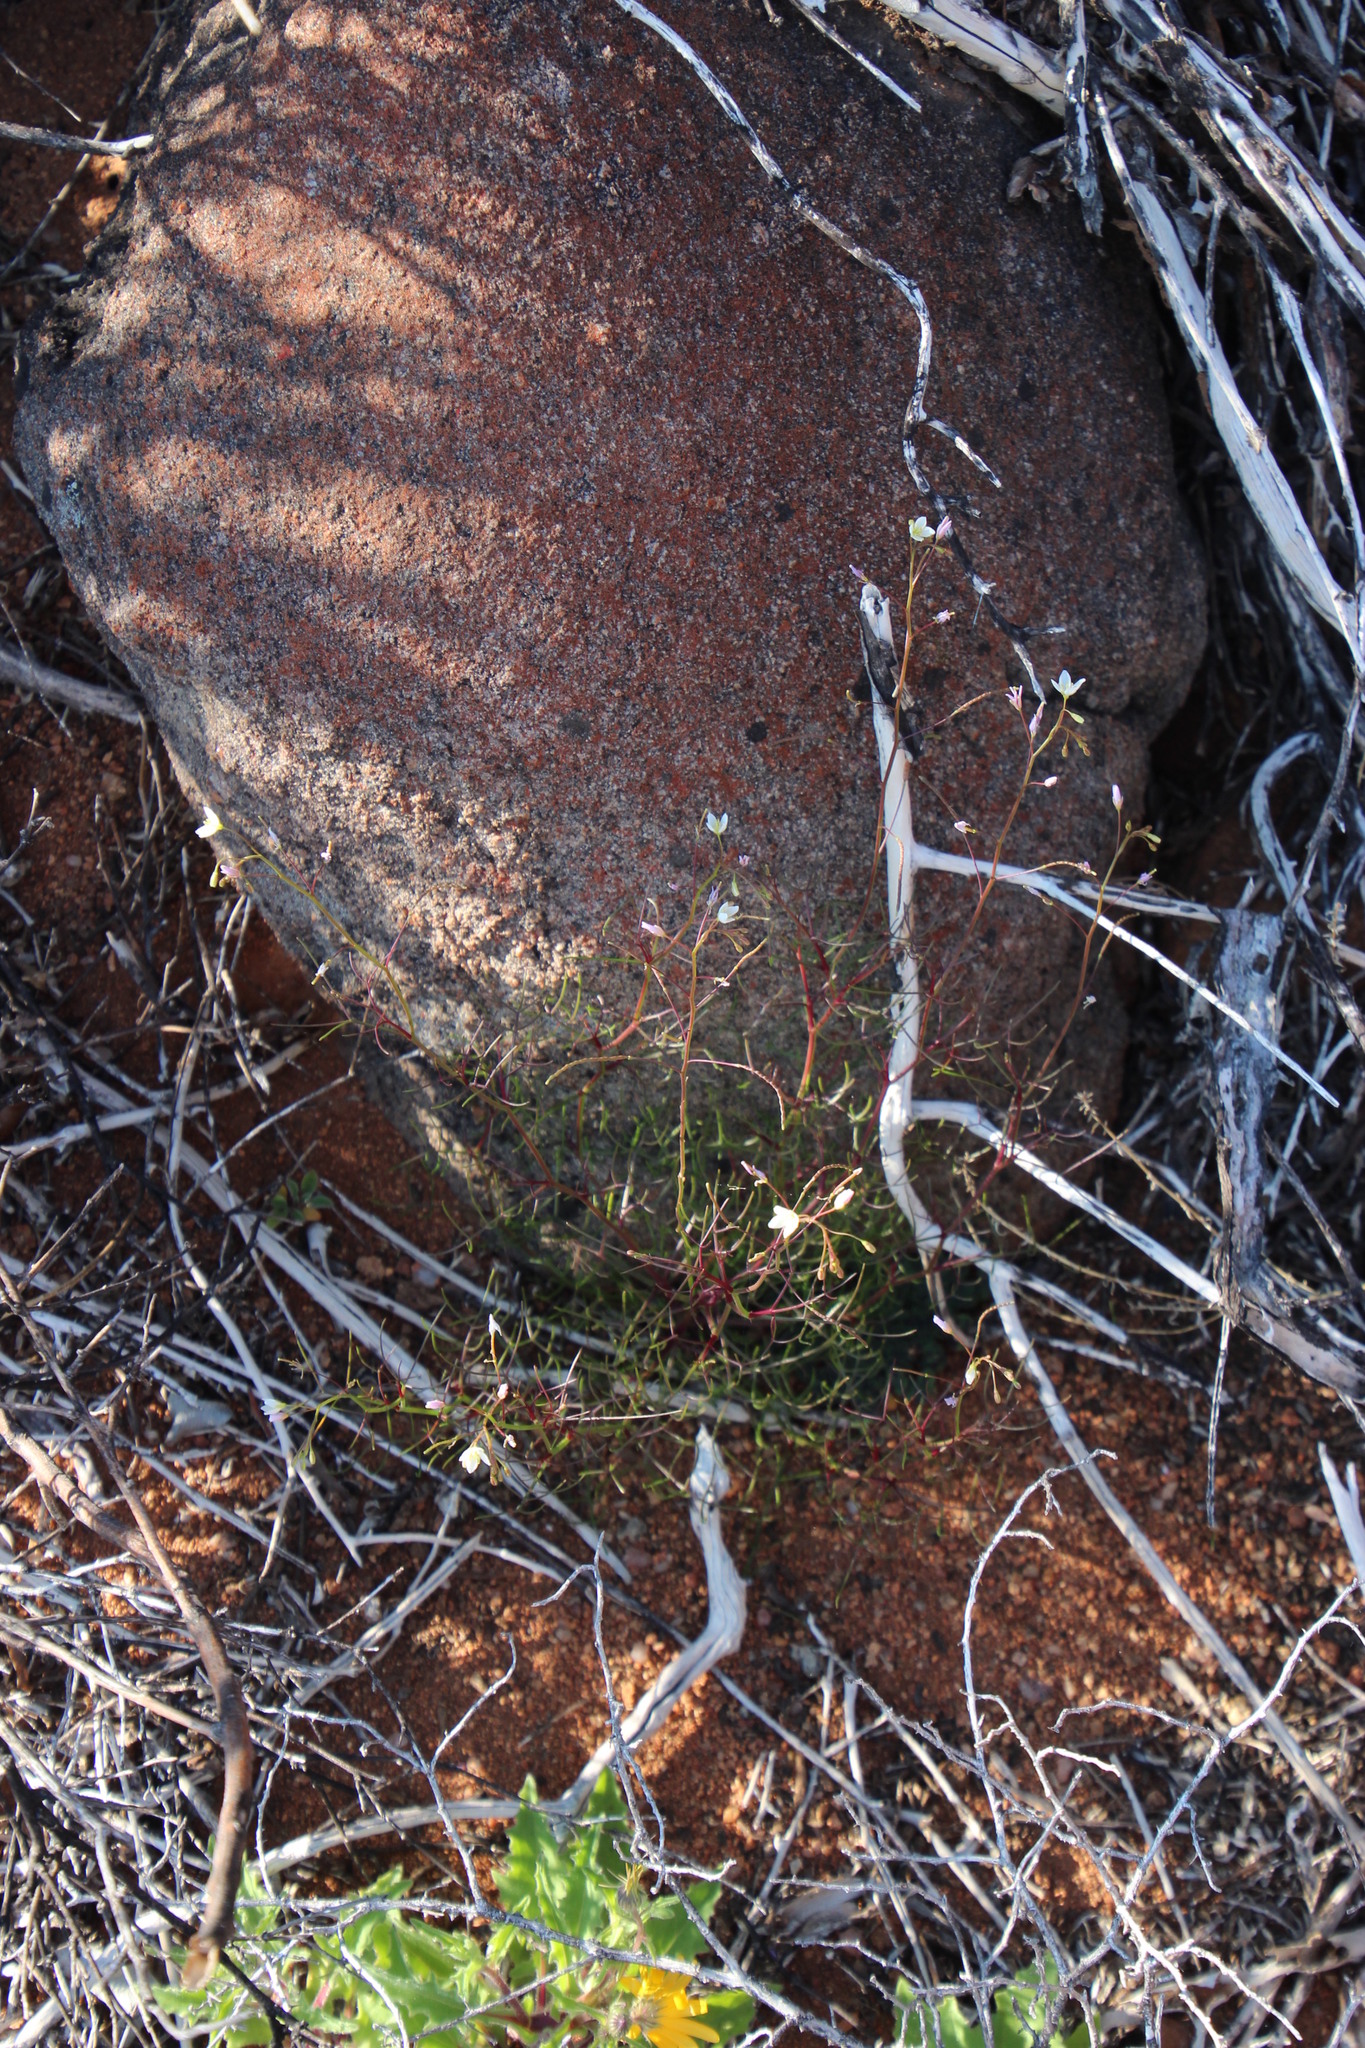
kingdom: Plantae
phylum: Tracheophyta
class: Magnoliopsida
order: Brassicales
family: Brassicaceae
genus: Heliophila
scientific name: Heliophila variabilis
